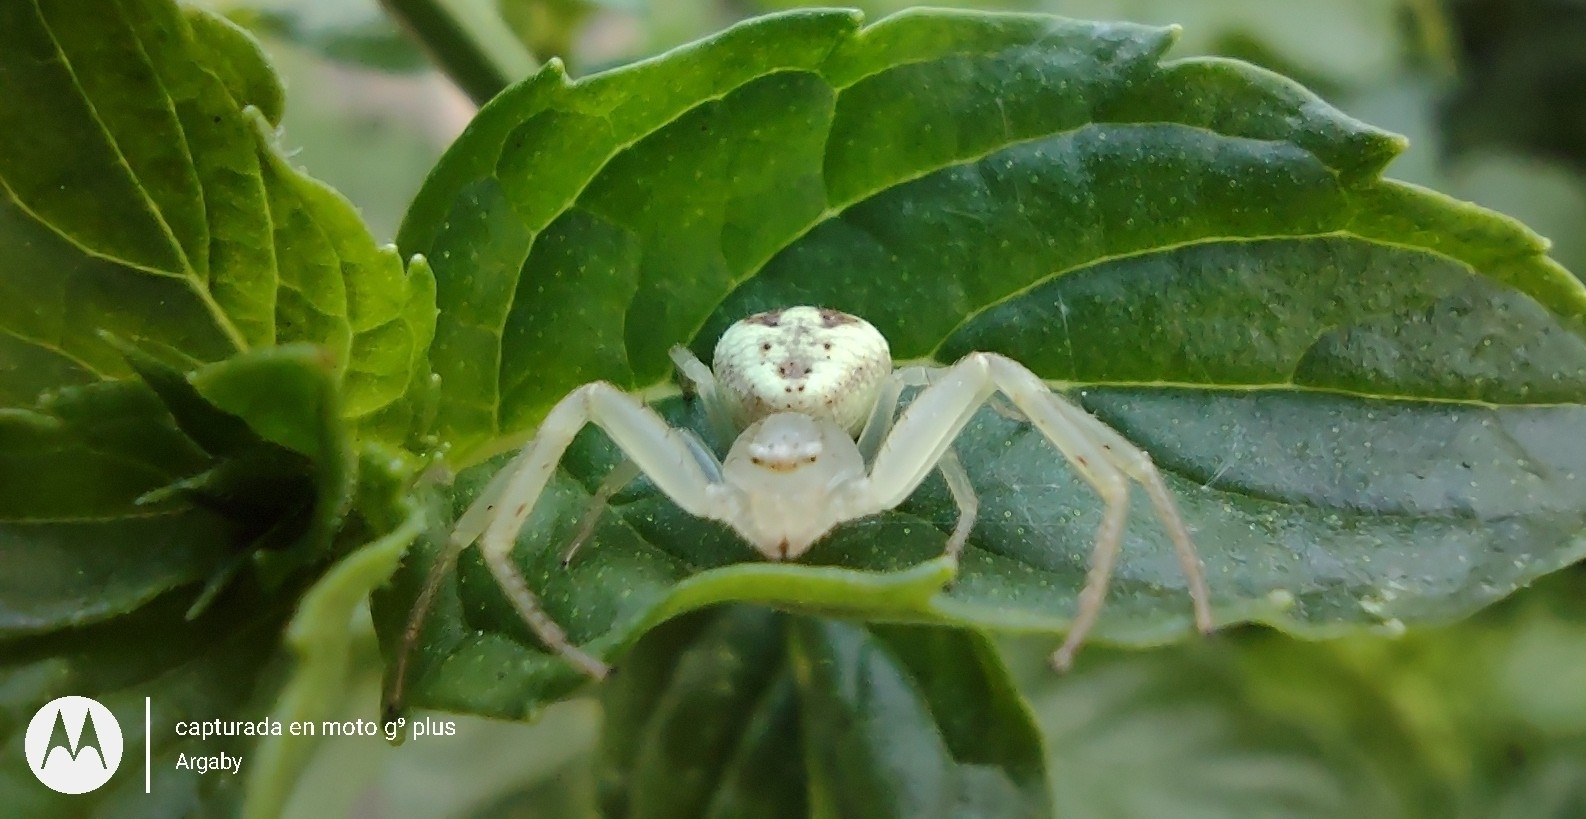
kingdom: Animalia
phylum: Arthropoda
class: Arachnida
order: Araneae
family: Thomisidae
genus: Misumenops
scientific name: Misumenops
